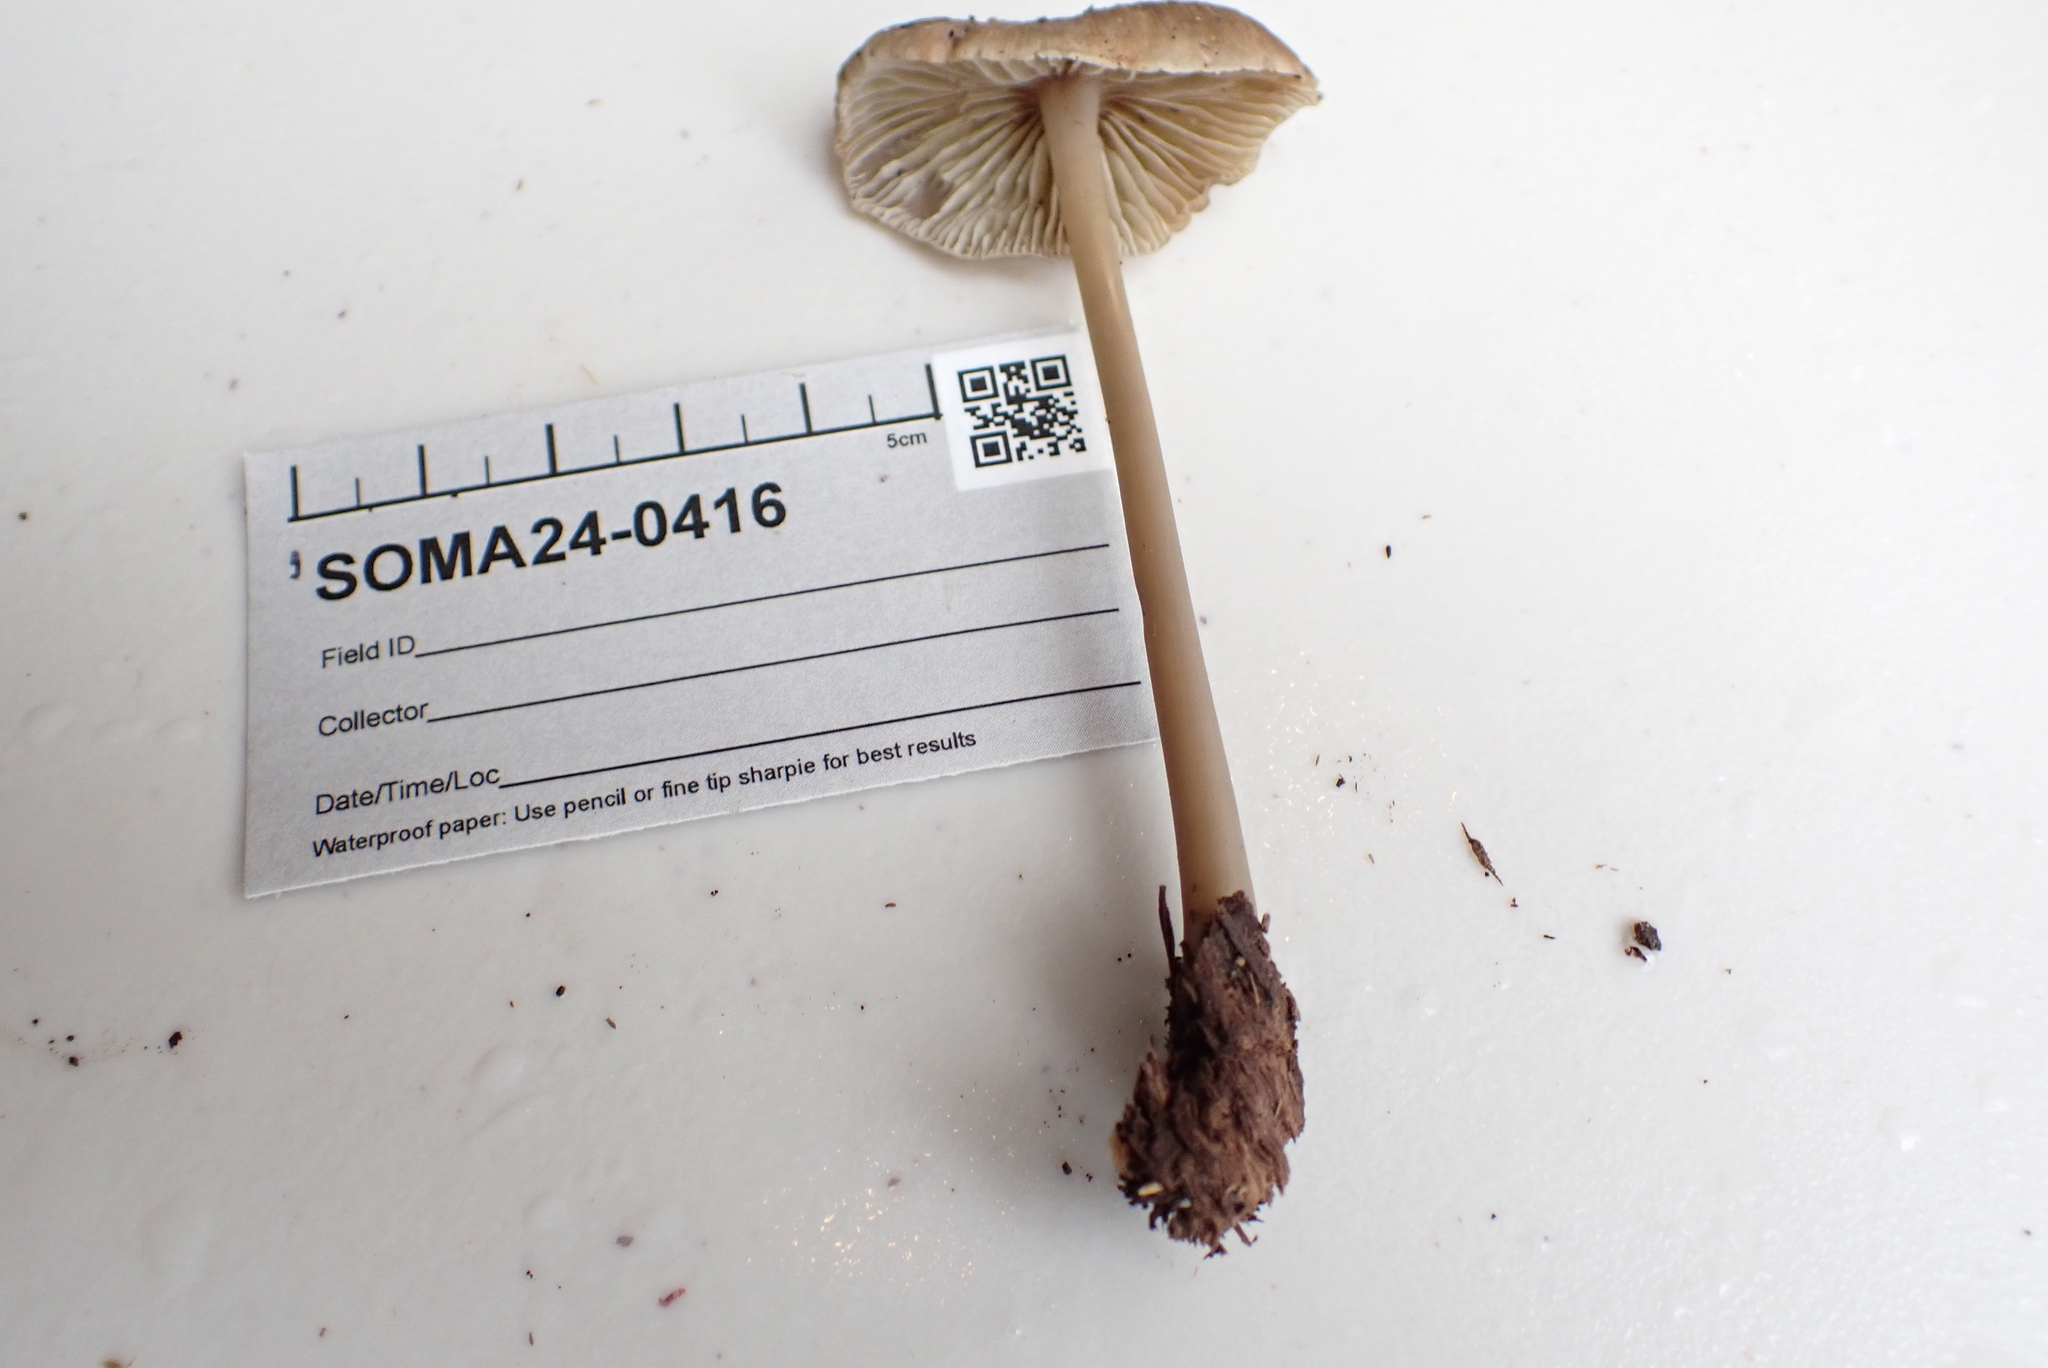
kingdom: Fungi
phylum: Basidiomycota
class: Agaricomycetes
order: Agaricales
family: Mycenaceae
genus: Mycena
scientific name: Mycena galericulata
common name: Bonnet mycena
